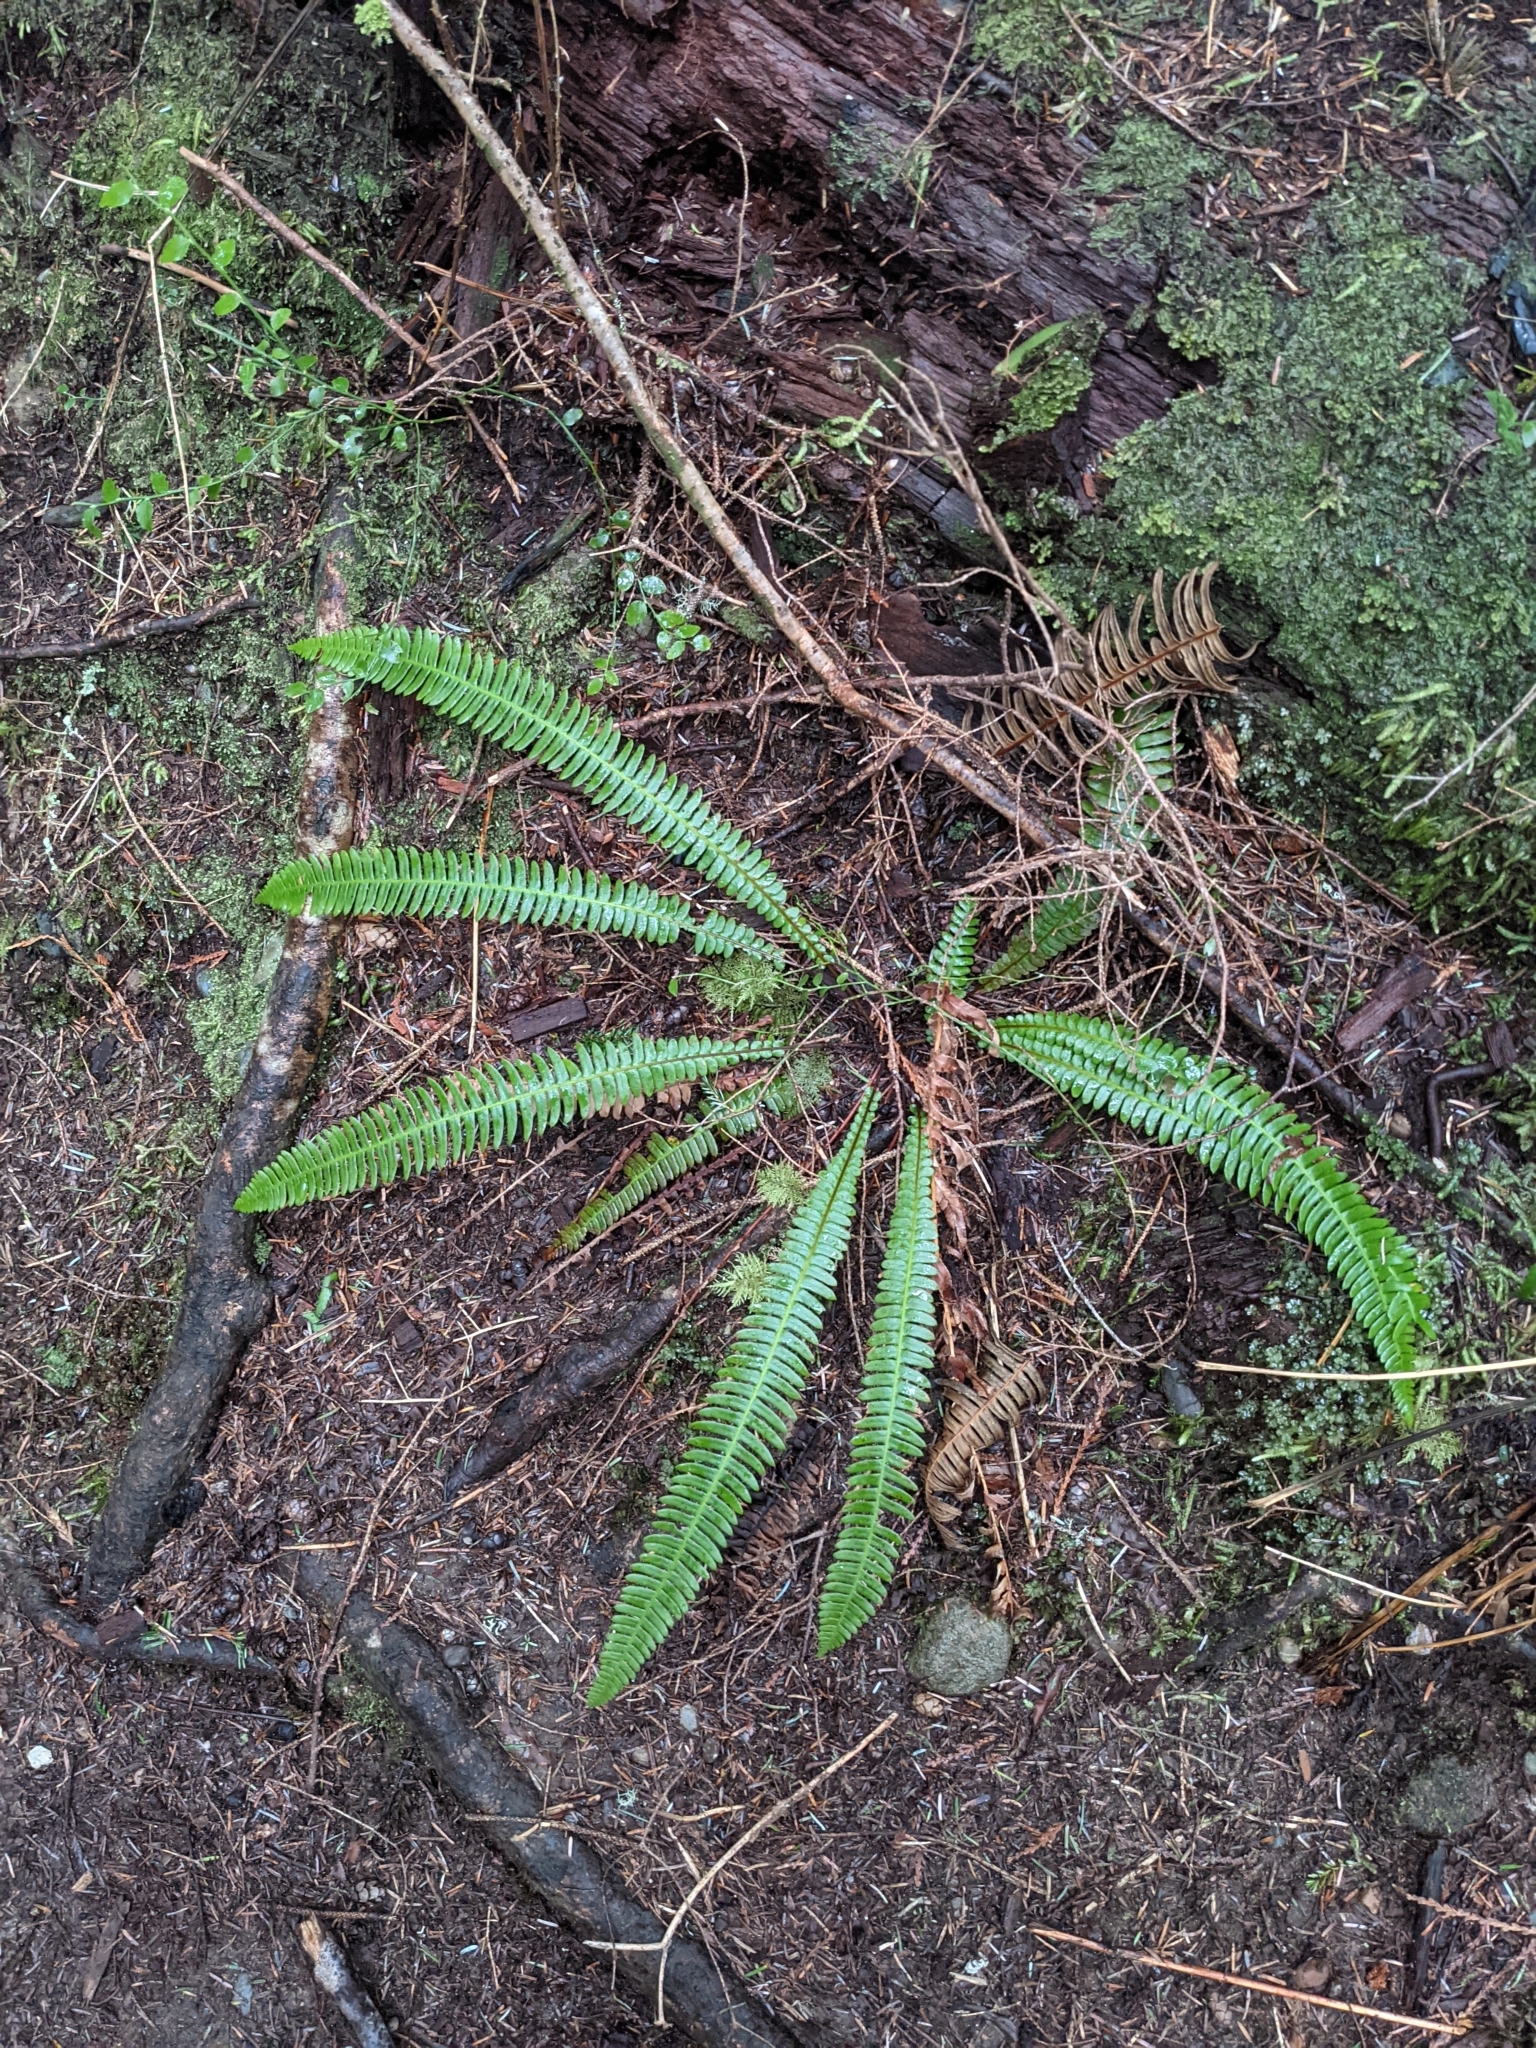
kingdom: Plantae
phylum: Tracheophyta
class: Polypodiopsida
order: Polypodiales
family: Blechnaceae
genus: Struthiopteris
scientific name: Struthiopteris spicant
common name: Deer fern
